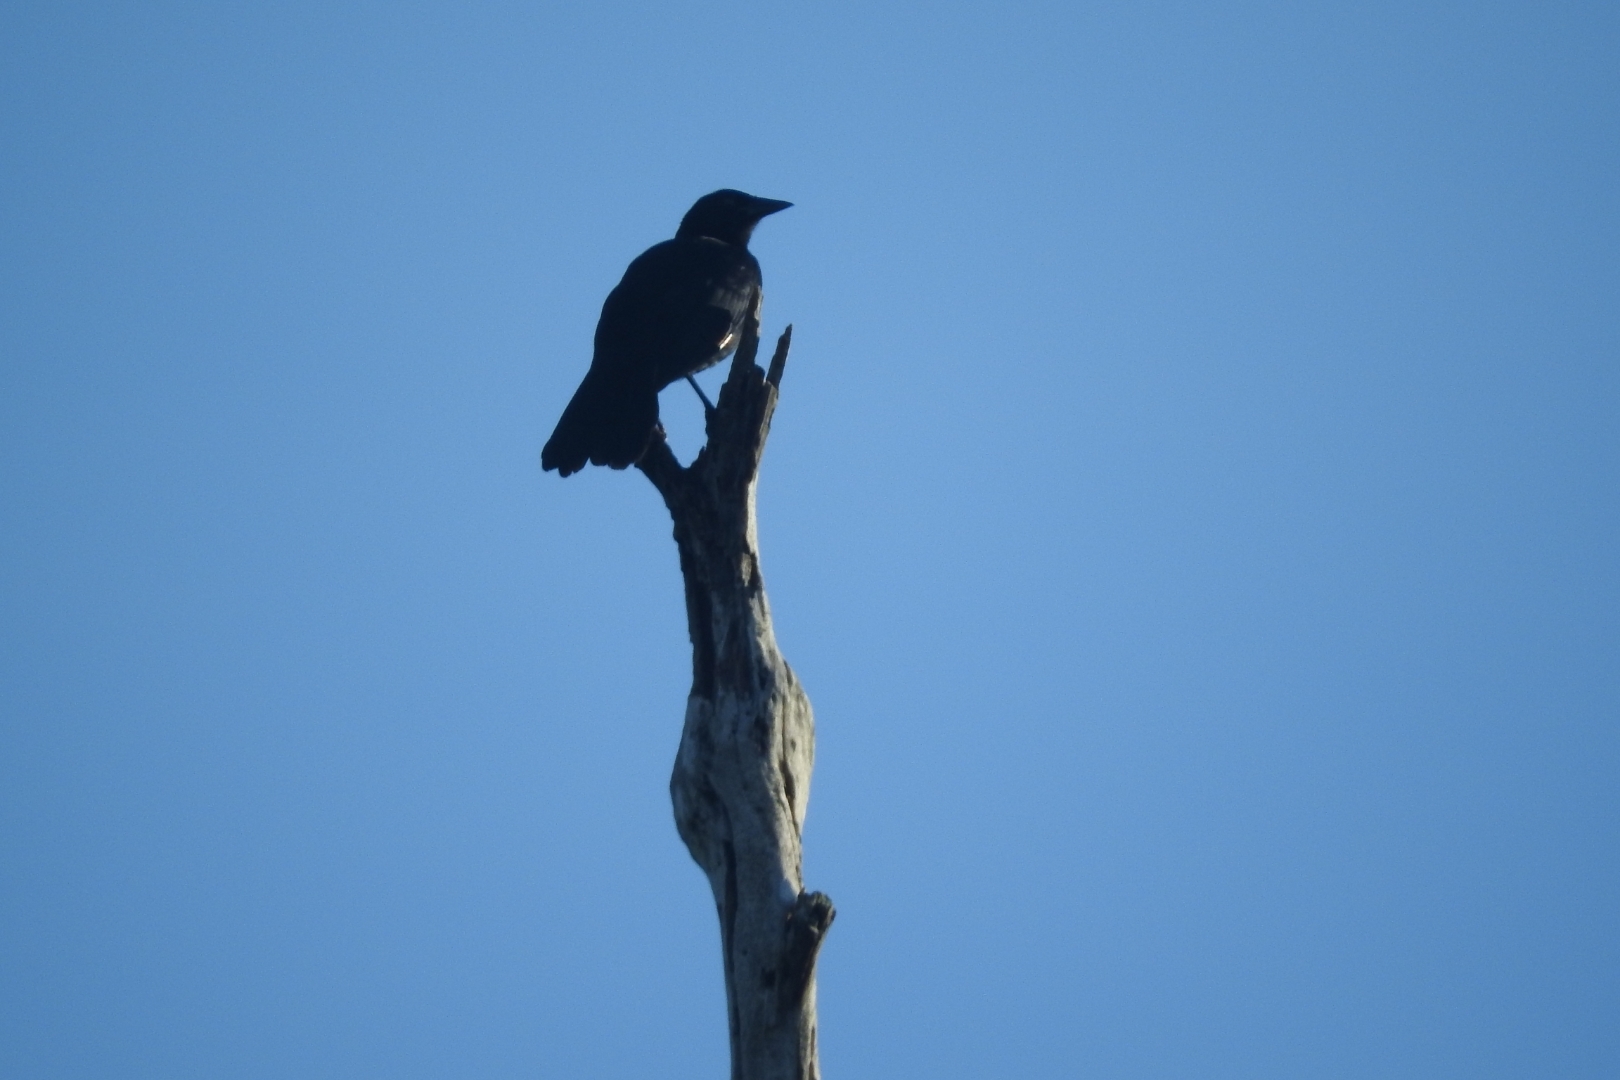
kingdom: Animalia
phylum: Chordata
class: Aves
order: Passeriformes
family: Icteridae
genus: Dives
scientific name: Dives dives
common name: Melodious blackbird
